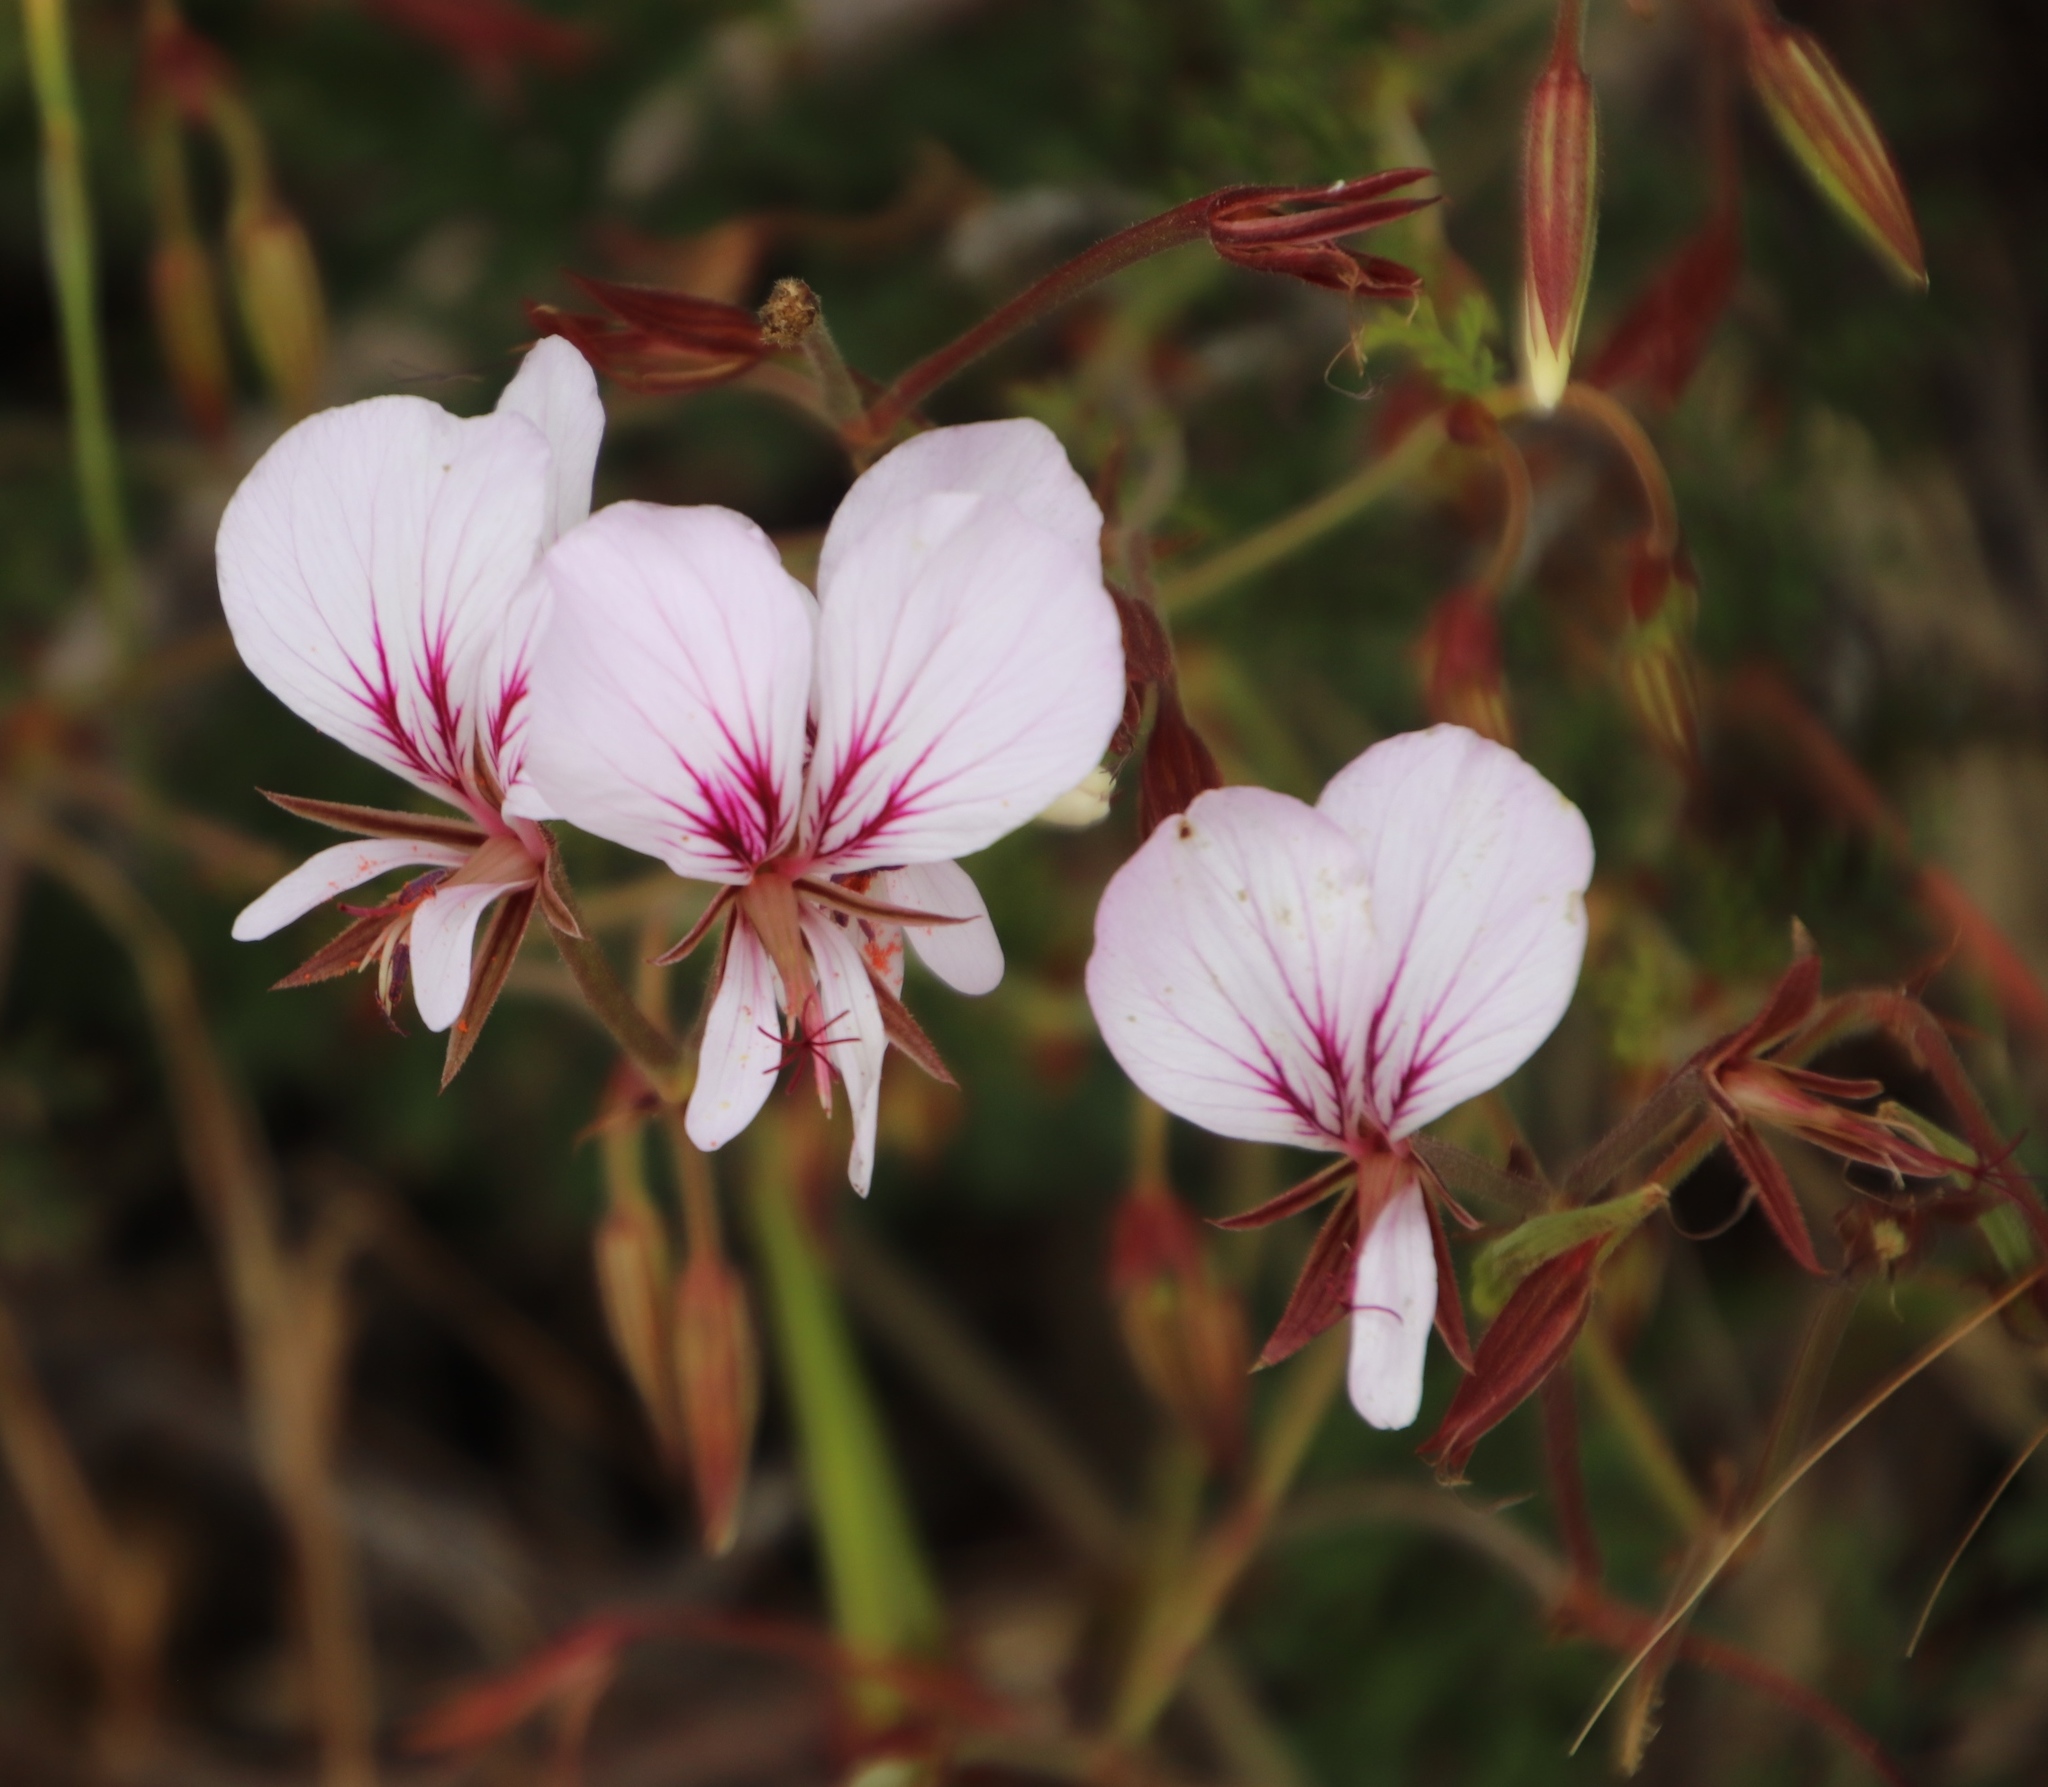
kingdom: Plantae
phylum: Tracheophyta
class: Magnoliopsida
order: Geraniales
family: Geraniaceae
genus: Pelargonium
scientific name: Pelargonium myrrhifolium
